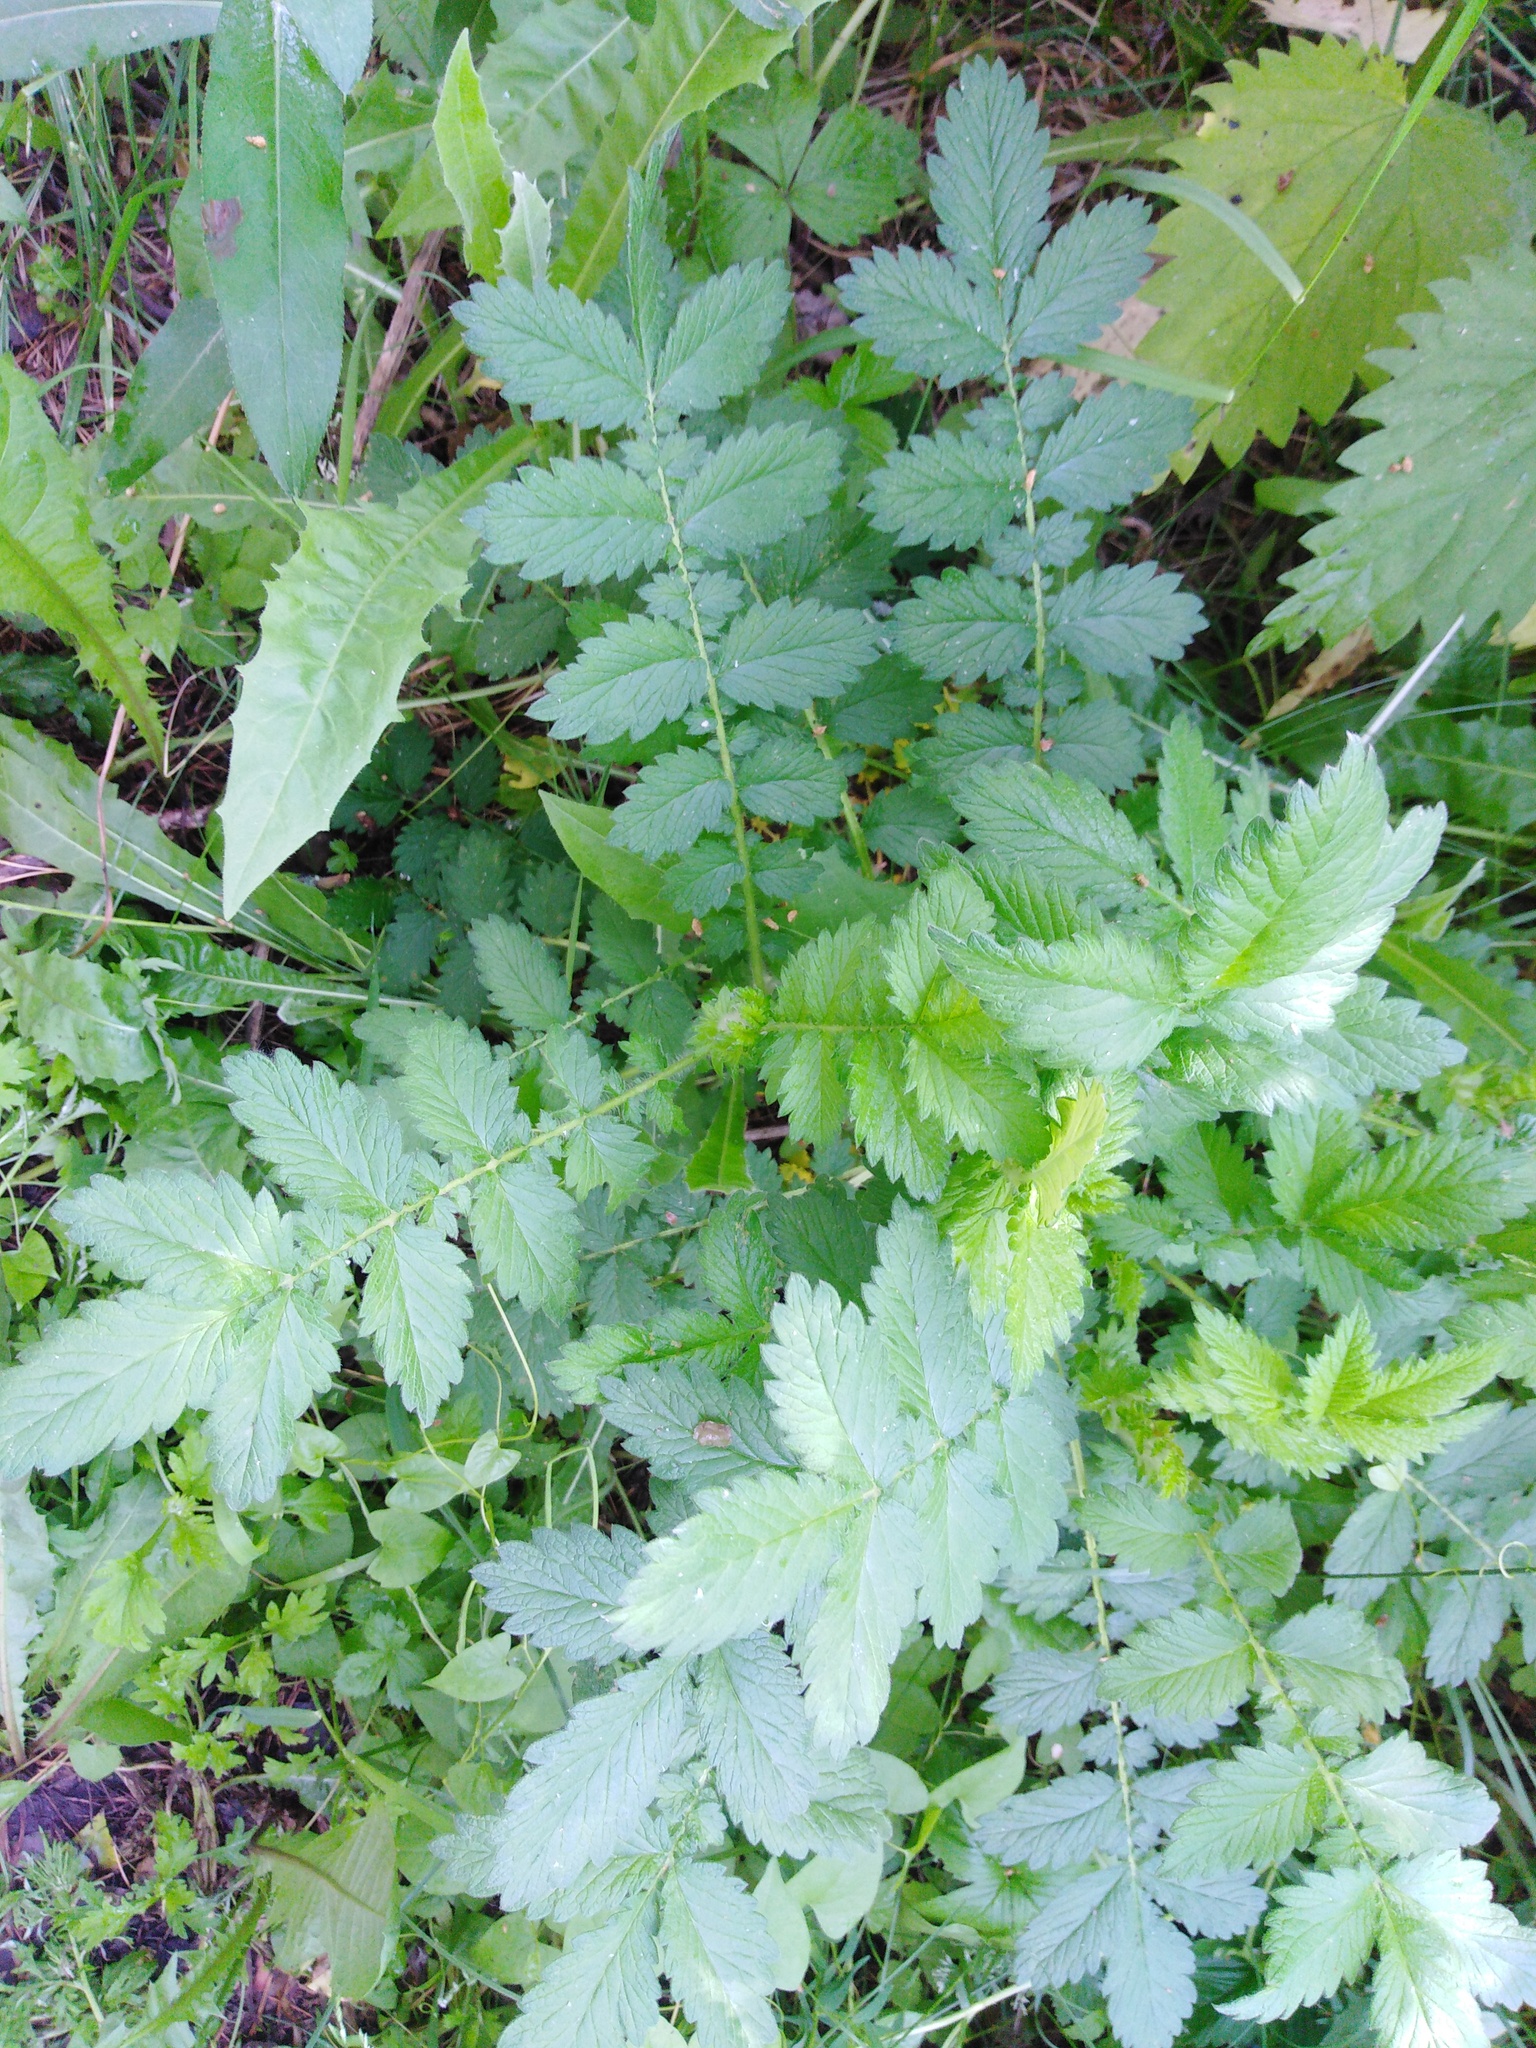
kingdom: Plantae
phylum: Tracheophyta
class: Magnoliopsida
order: Rosales
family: Rosaceae
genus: Agrimonia
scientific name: Agrimonia eupatoria
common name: Agrimony
